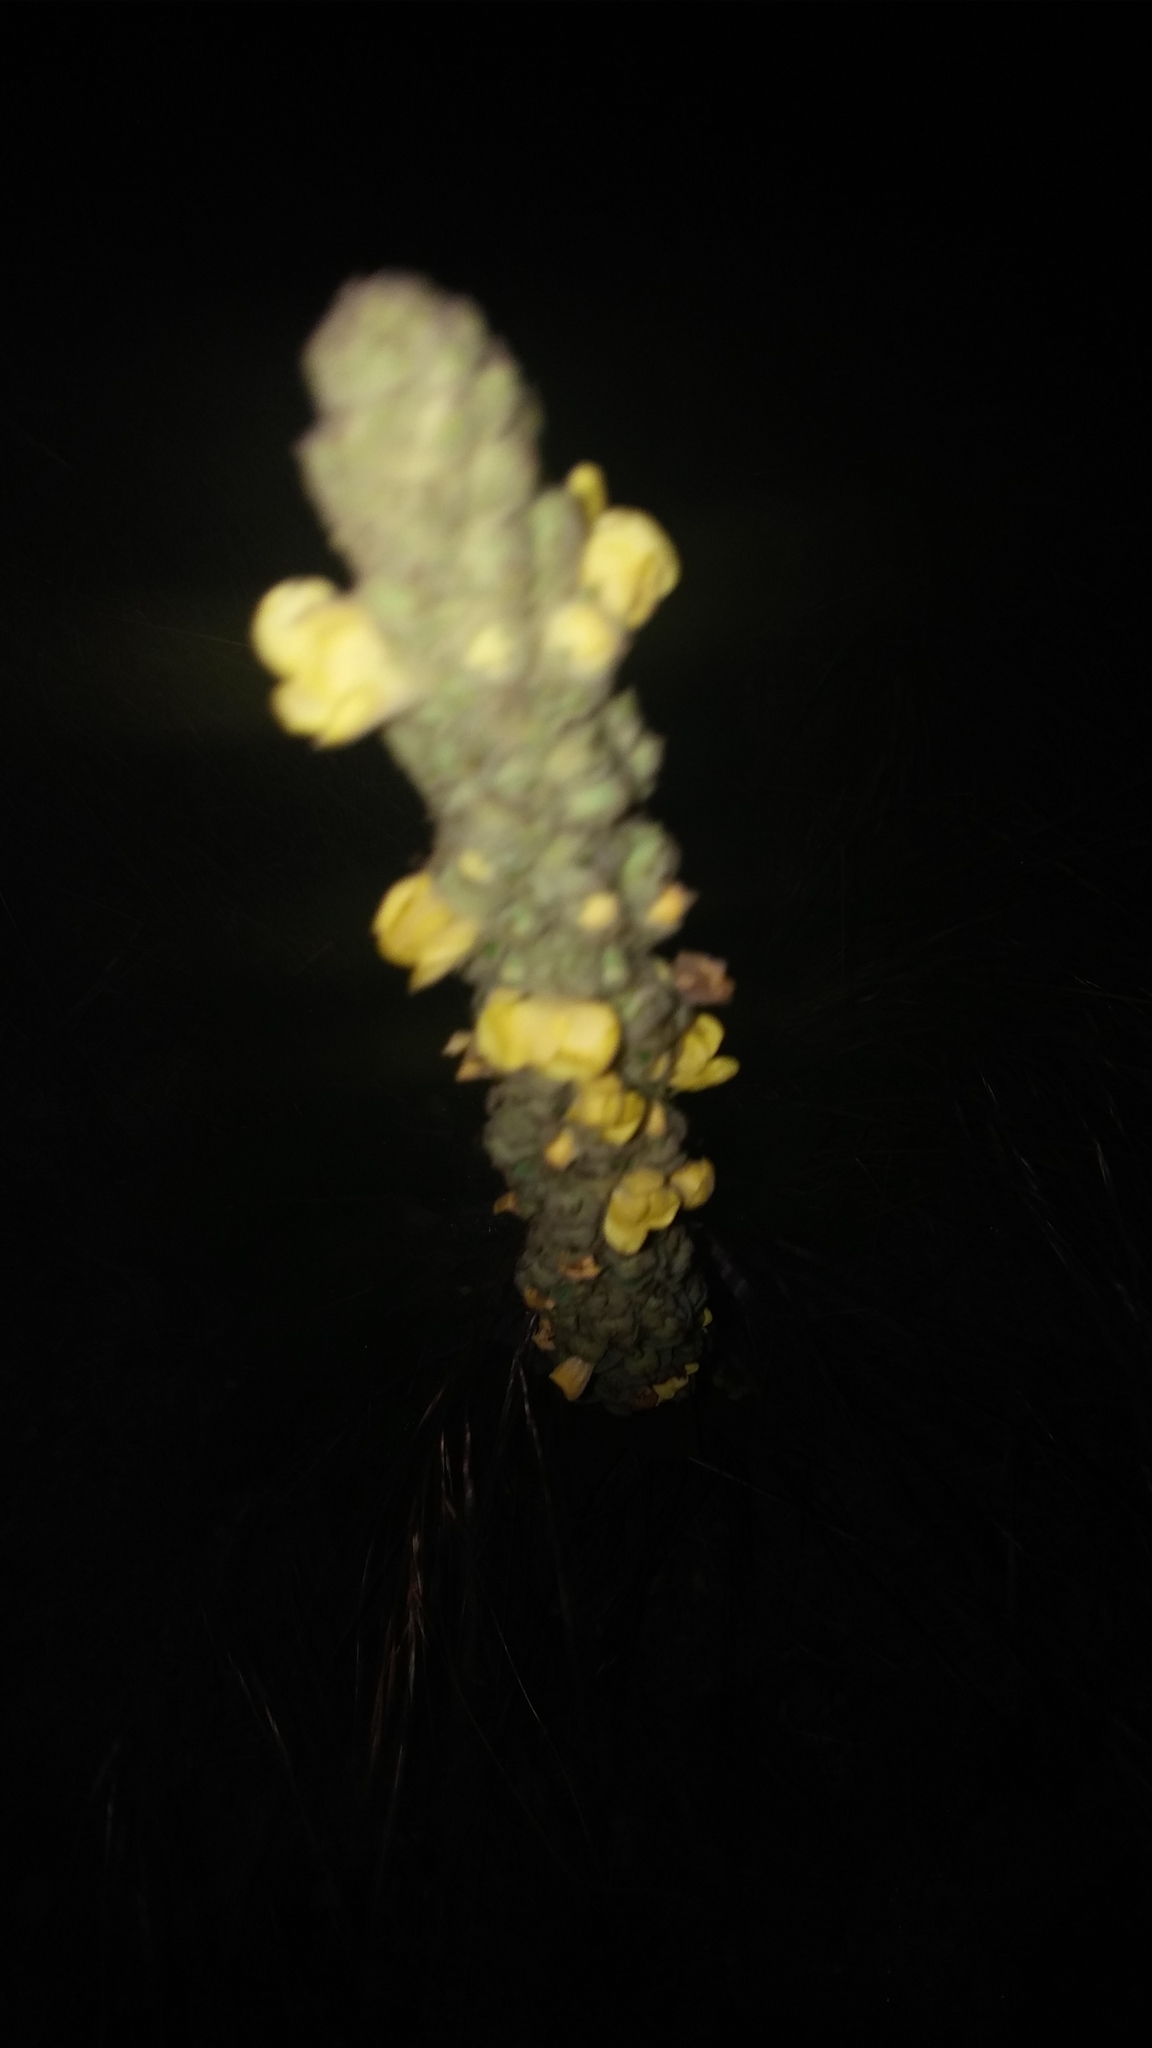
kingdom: Plantae
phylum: Tracheophyta
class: Magnoliopsida
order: Lamiales
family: Scrophulariaceae
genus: Verbascum
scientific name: Verbascum thapsus
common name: Common mullein
